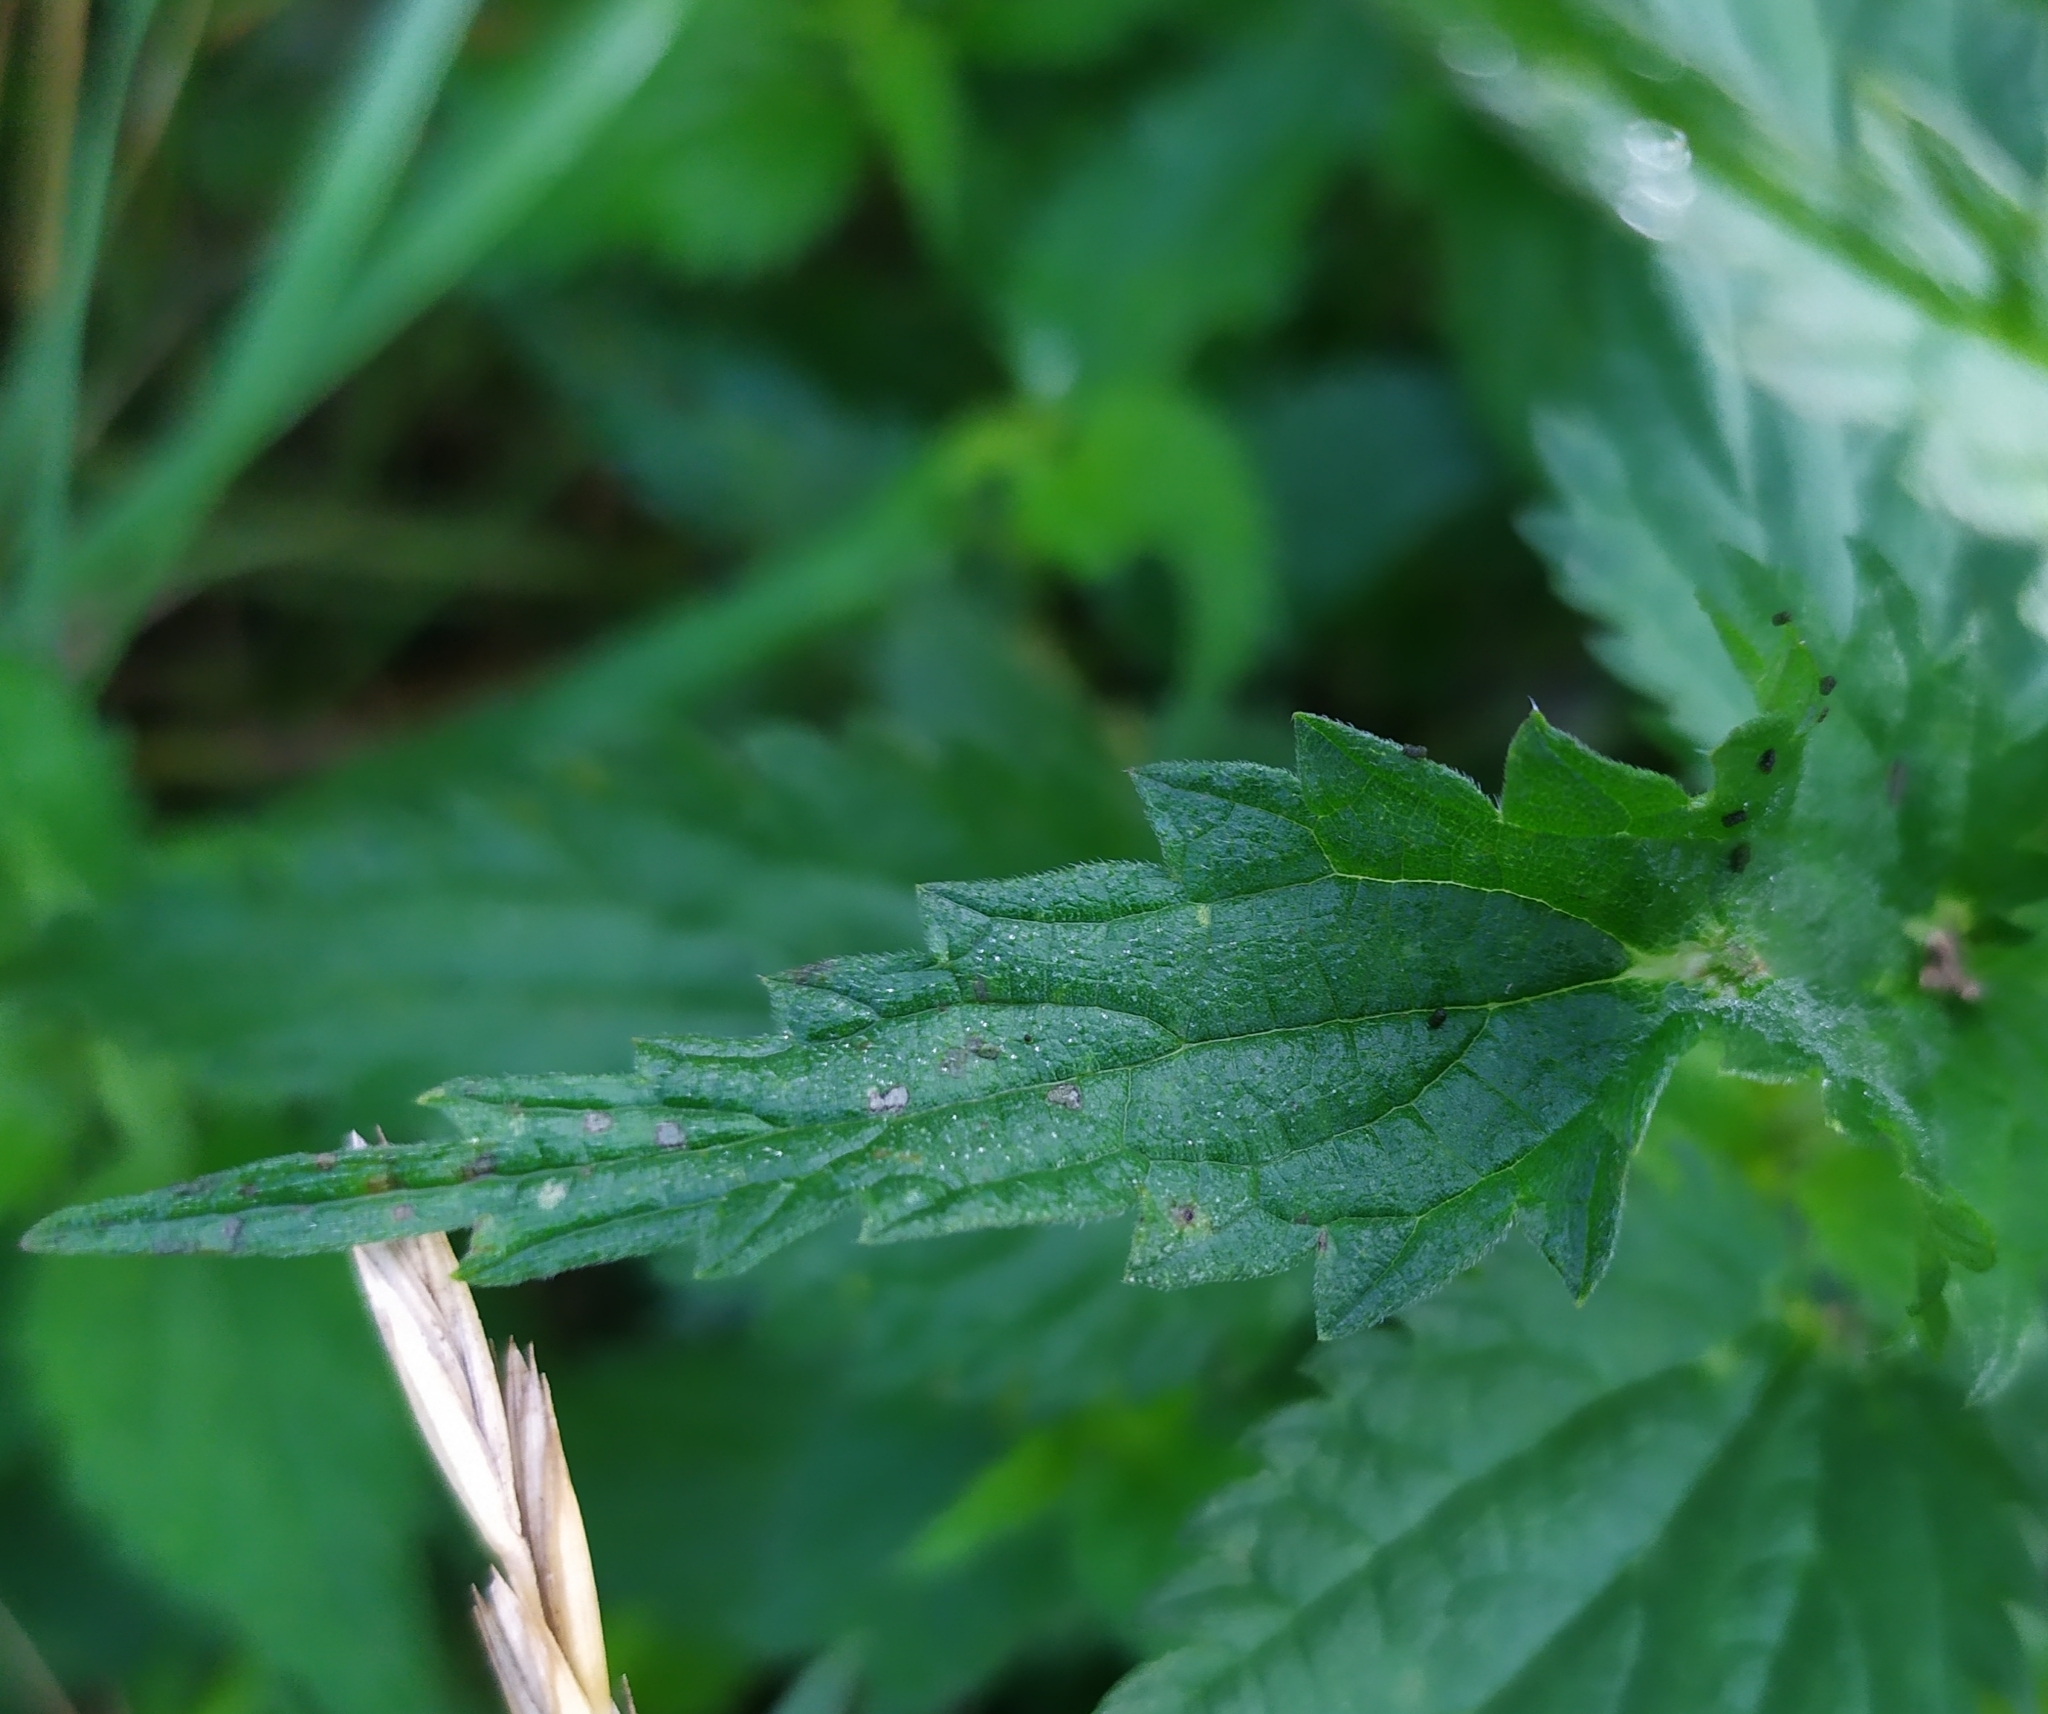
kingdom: Animalia
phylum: Arthropoda
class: Insecta
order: Diptera
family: Cecidomyiidae
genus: Dasineura
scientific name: Dasineura urticae
